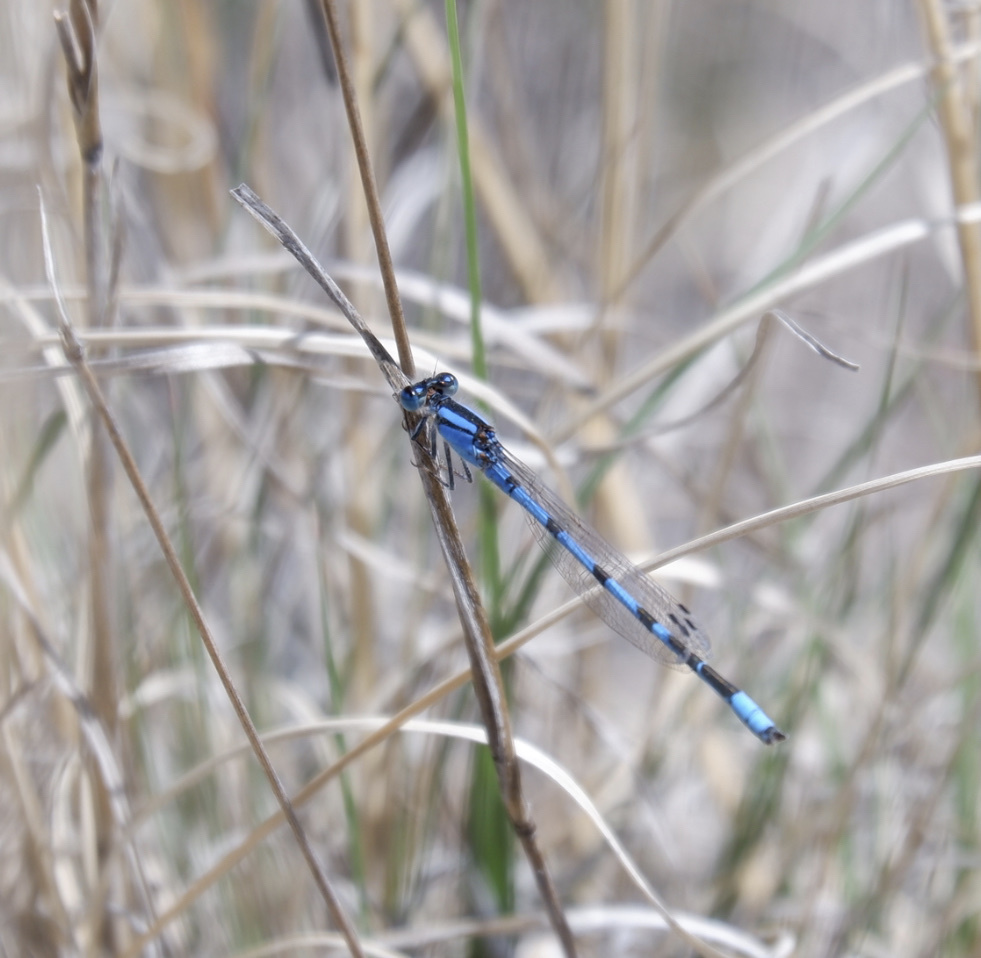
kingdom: Animalia
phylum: Arthropoda
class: Insecta
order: Odonata
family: Coenagrionidae
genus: Enallagma
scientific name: Enallagma civile
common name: Damselfly
